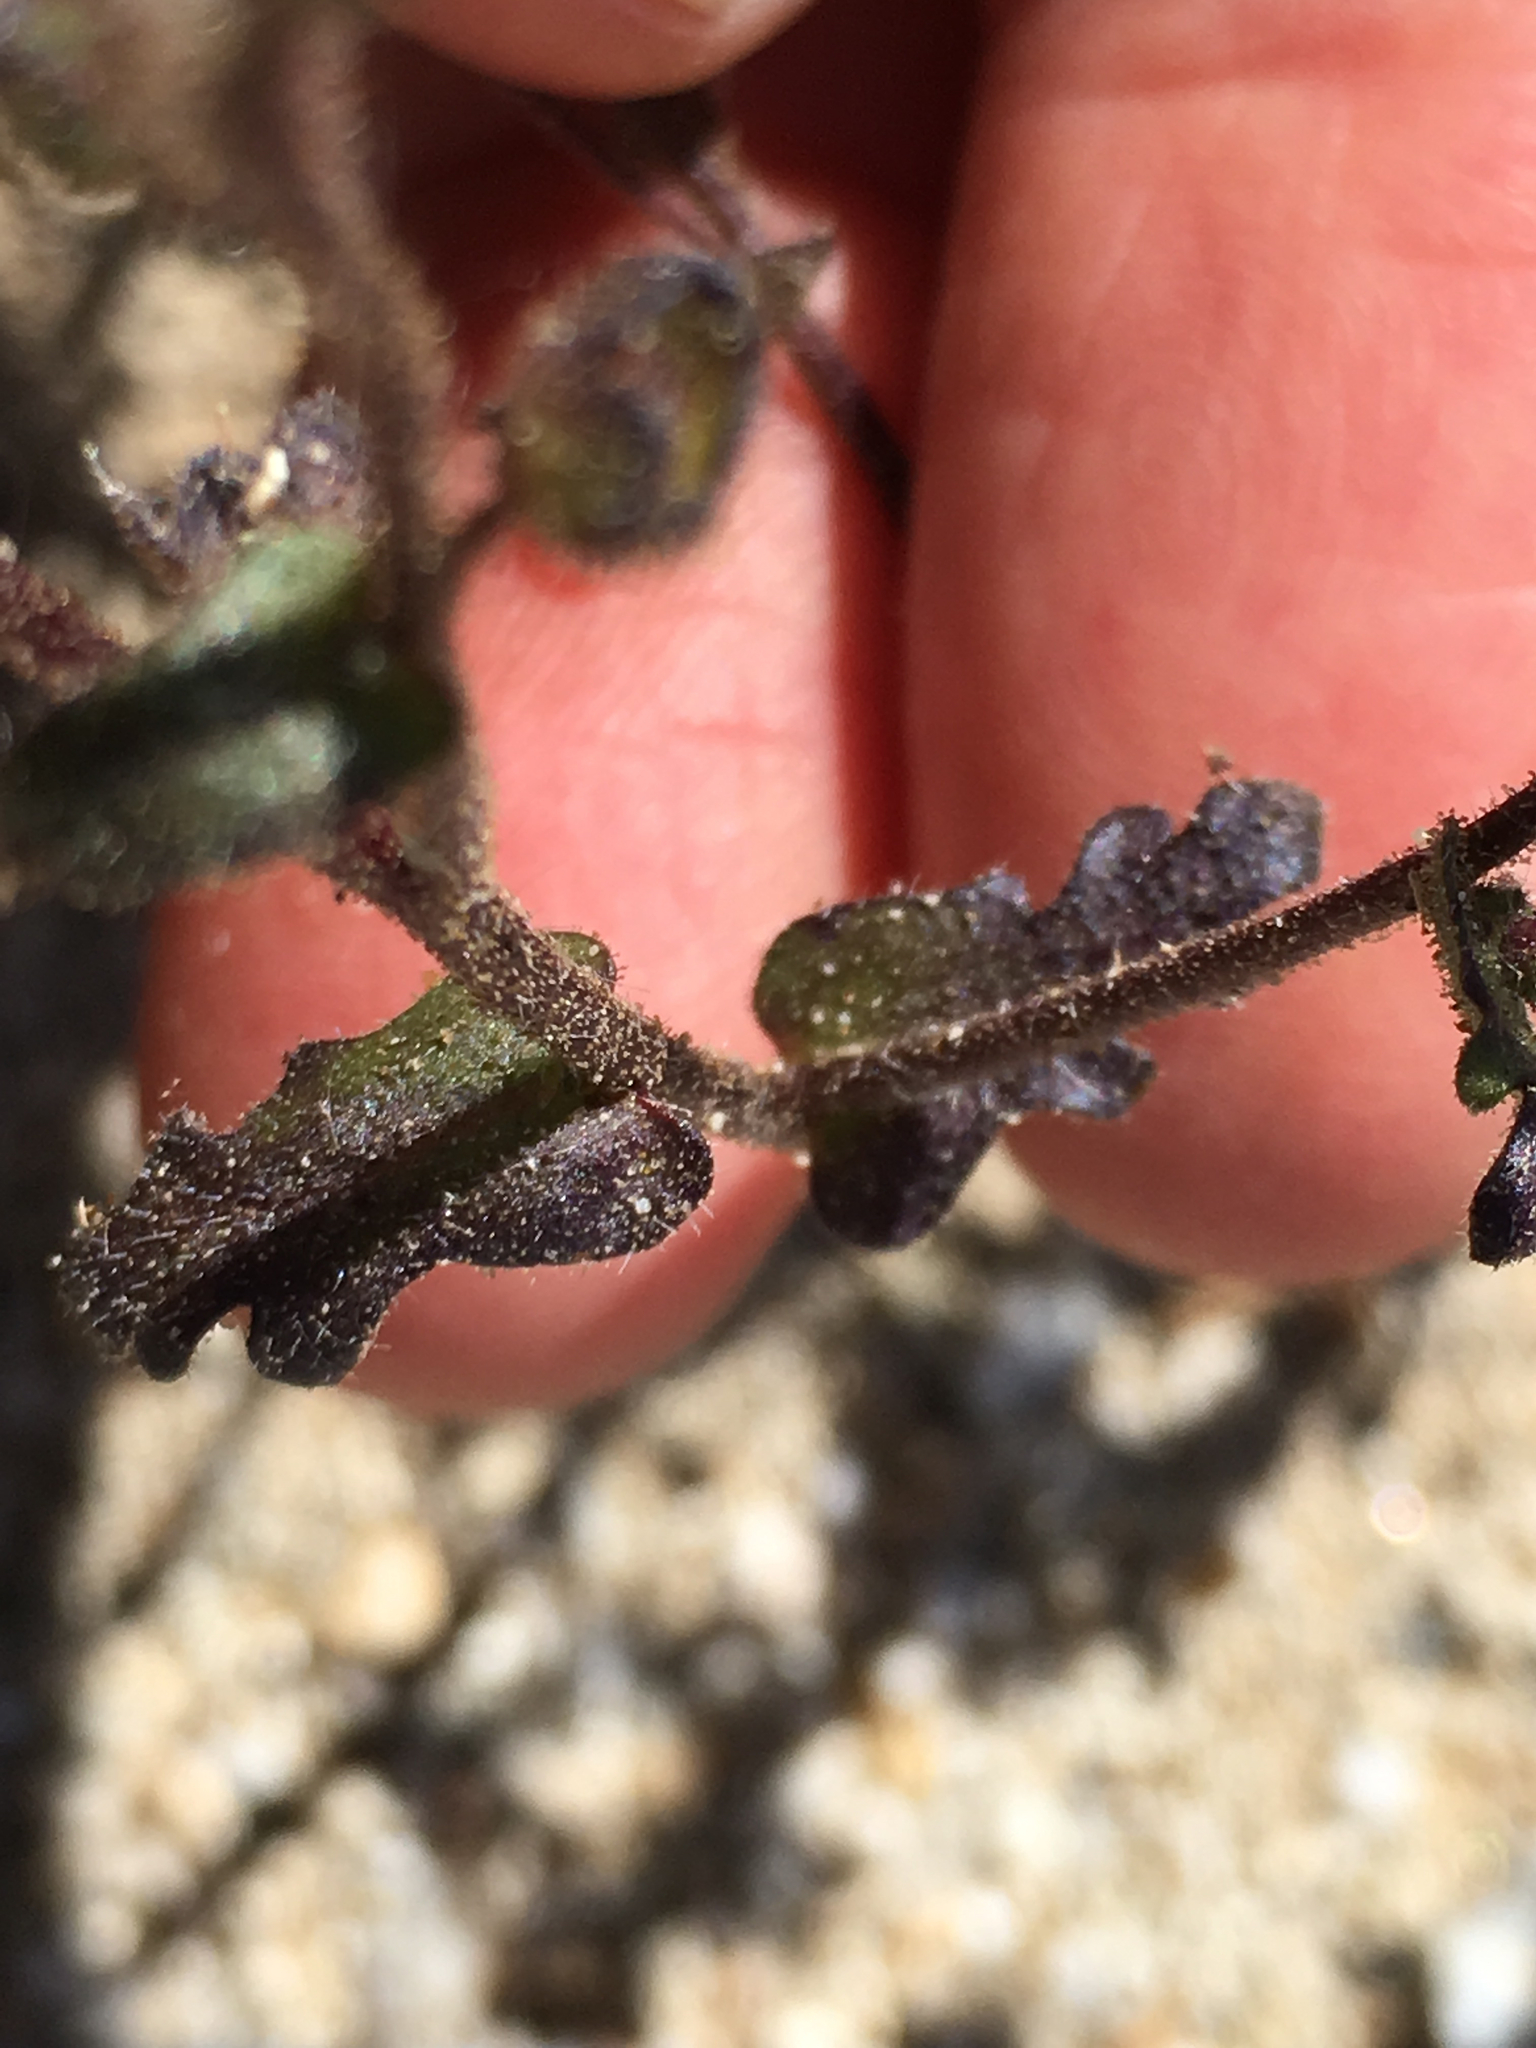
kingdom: Plantae
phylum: Tracheophyta
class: Magnoliopsida
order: Boraginales
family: Hydrophyllaceae
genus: Eucrypta
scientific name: Eucrypta micrantha
